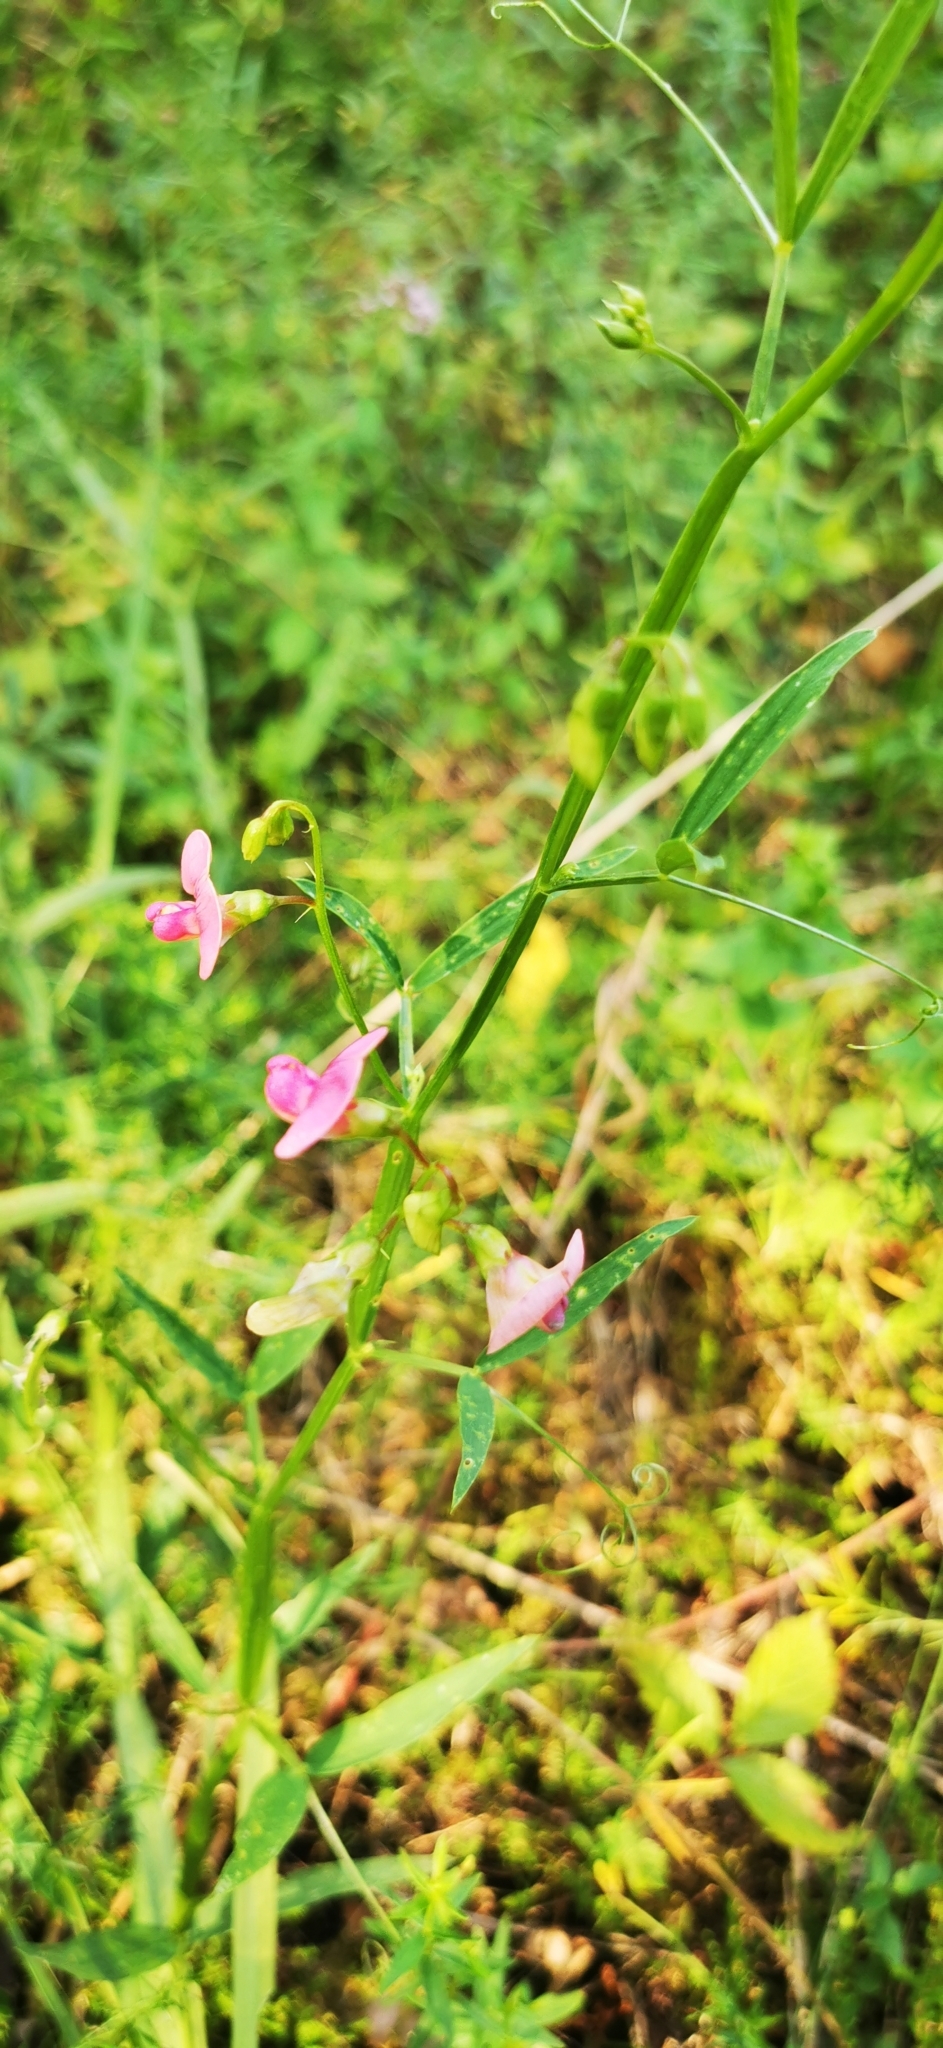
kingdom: Plantae
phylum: Tracheophyta
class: Magnoliopsida
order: Fabales
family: Fabaceae
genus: Lathyrus
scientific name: Lathyrus sylvestris
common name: Flat pea
